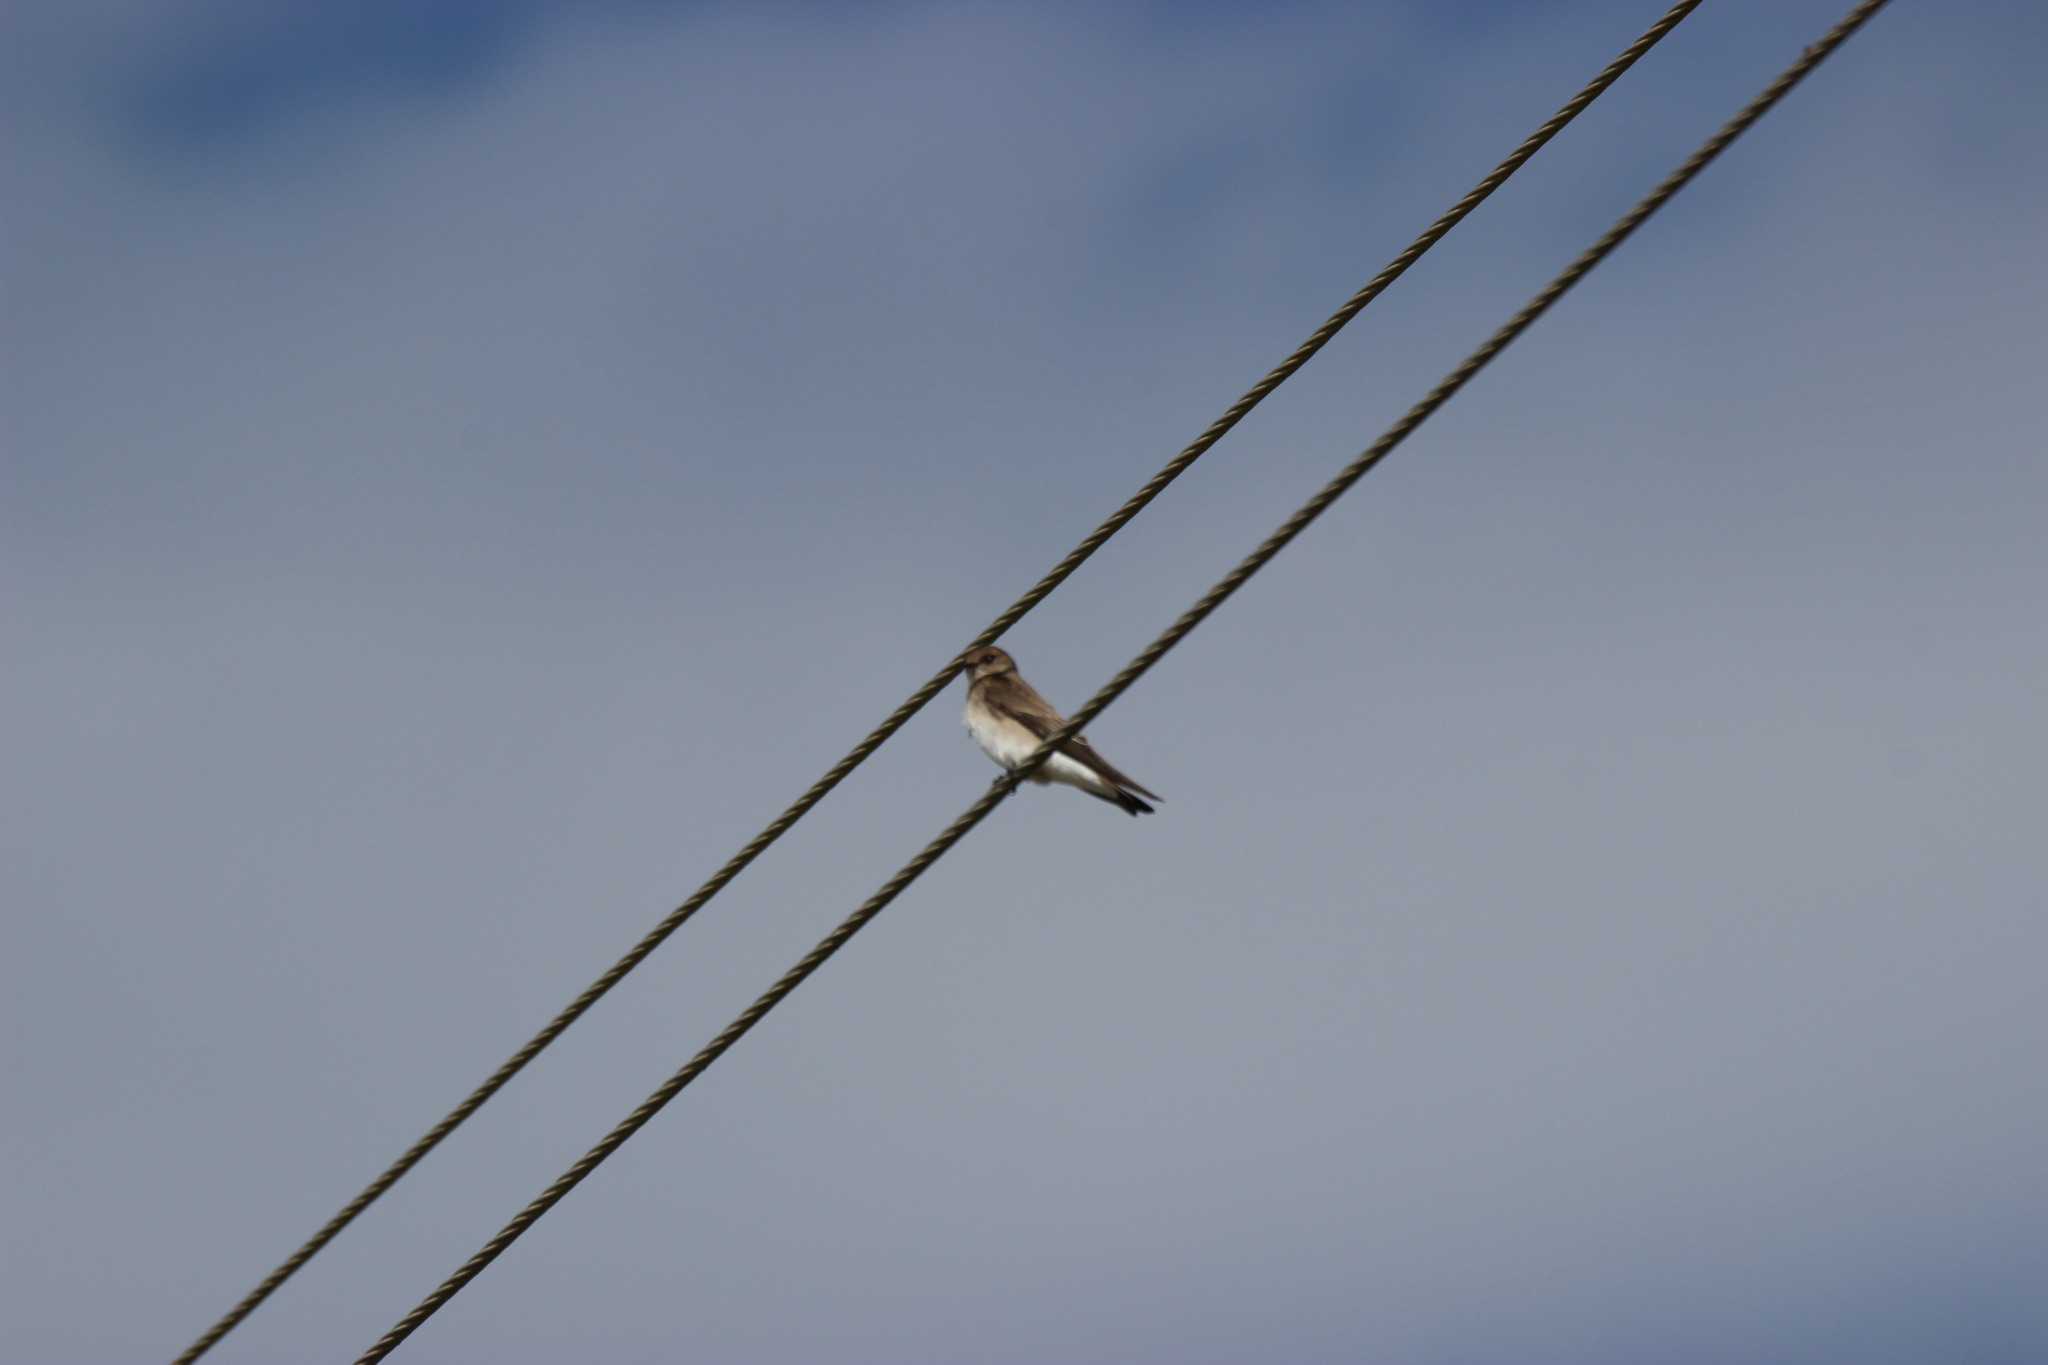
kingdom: Animalia
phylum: Chordata
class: Aves
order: Passeriformes
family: Hirundinidae
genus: Stelgidopteryx
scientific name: Stelgidopteryx serripennis
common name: Northern rough-winged swallow
